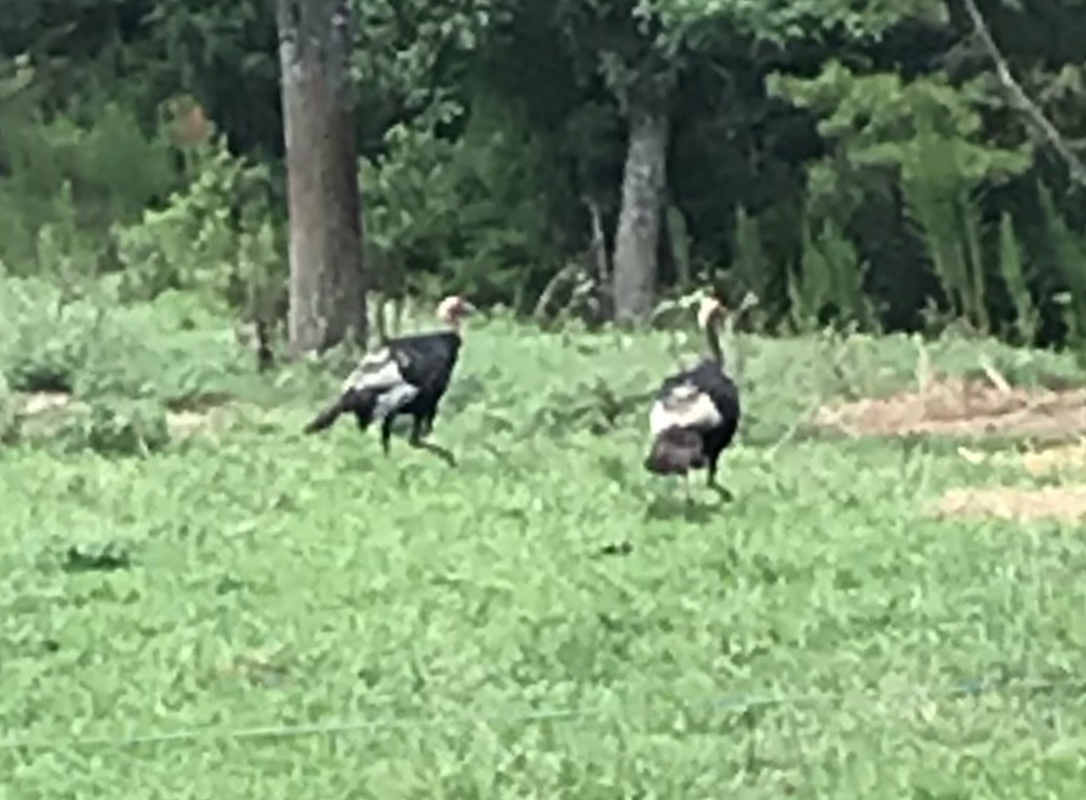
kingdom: Animalia
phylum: Chordata
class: Aves
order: Galliformes
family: Phasianidae
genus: Meleagris
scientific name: Meleagris gallopavo
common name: Wild turkey
